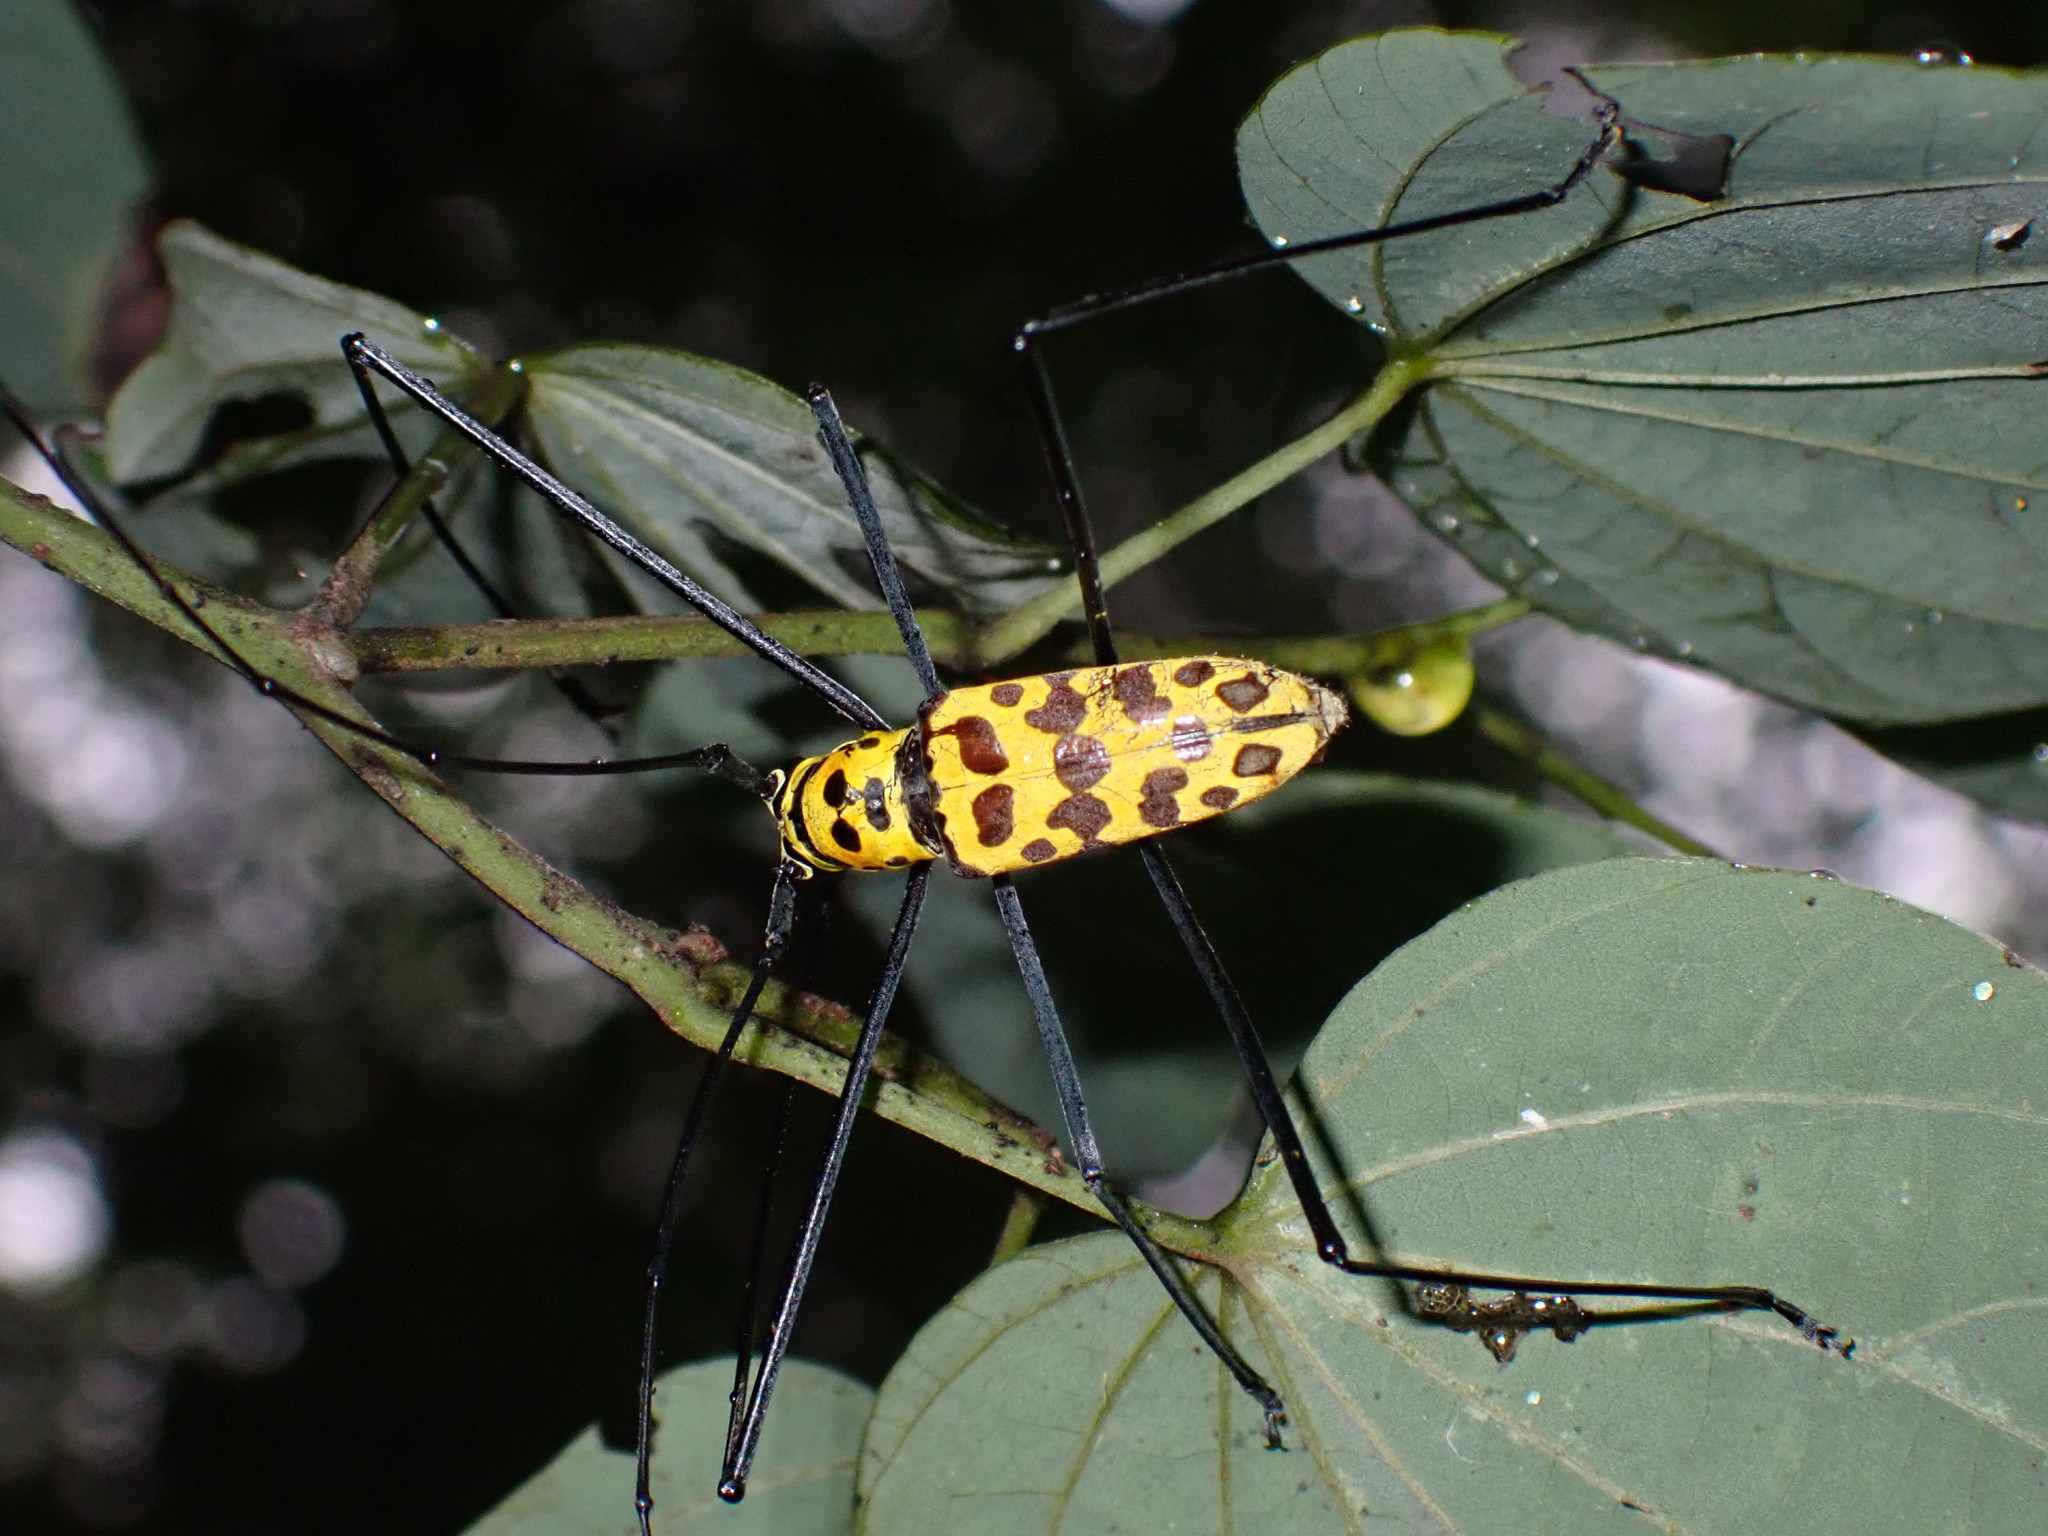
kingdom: Animalia
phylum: Arthropoda
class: Insecta
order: Coleoptera
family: Cerambycidae
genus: Gerania
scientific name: Gerania boscii
